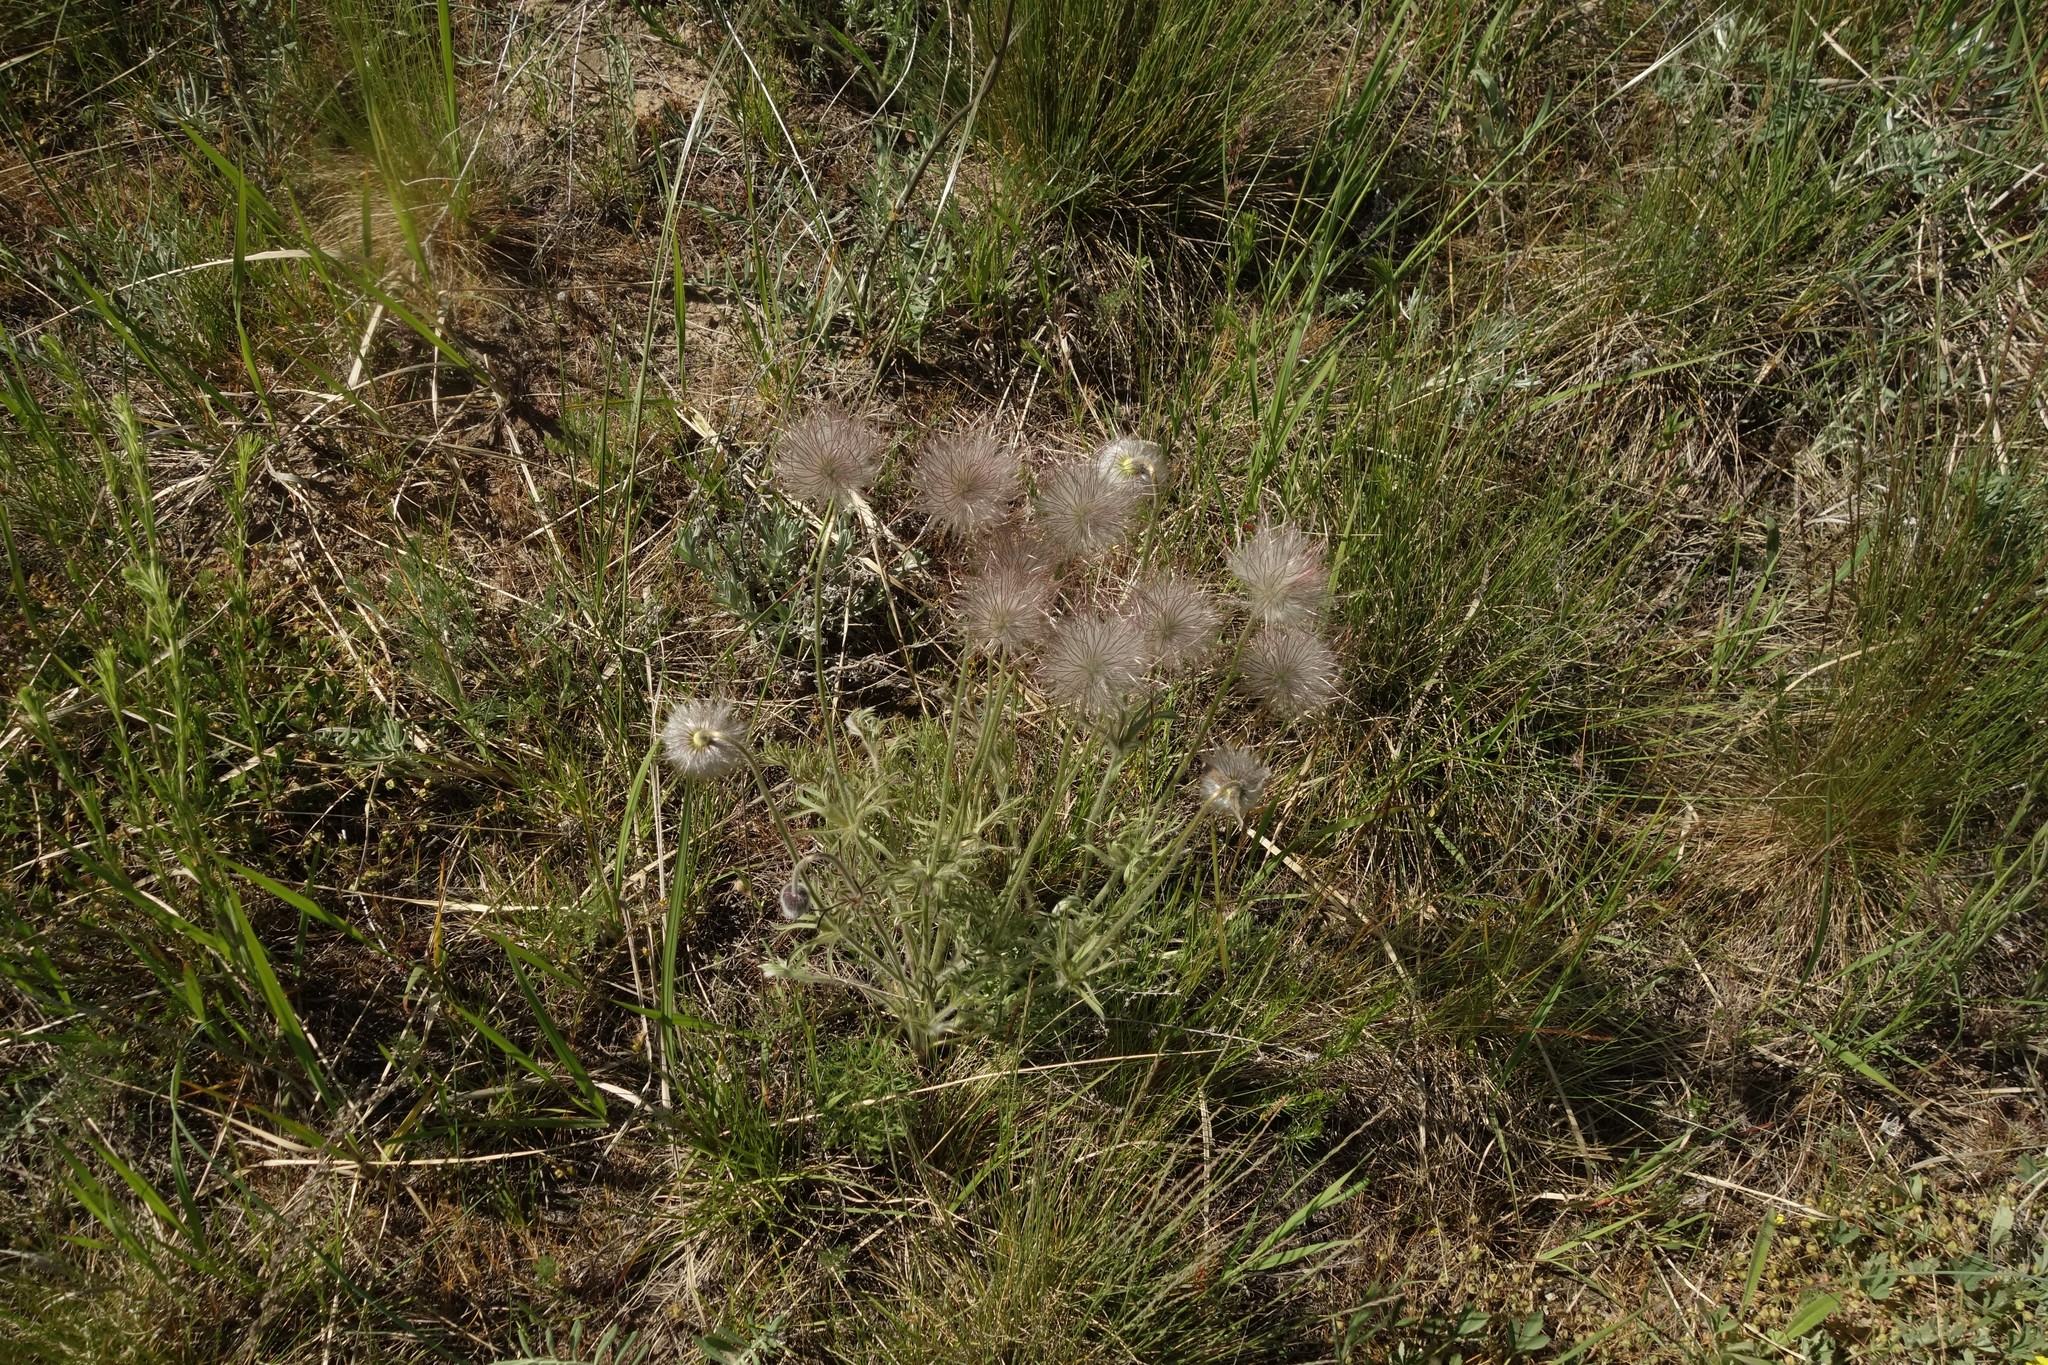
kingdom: Plantae
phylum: Tracheophyta
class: Magnoliopsida
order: Ranunculales
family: Ranunculaceae
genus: Pulsatilla
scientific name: Pulsatilla pratensis
